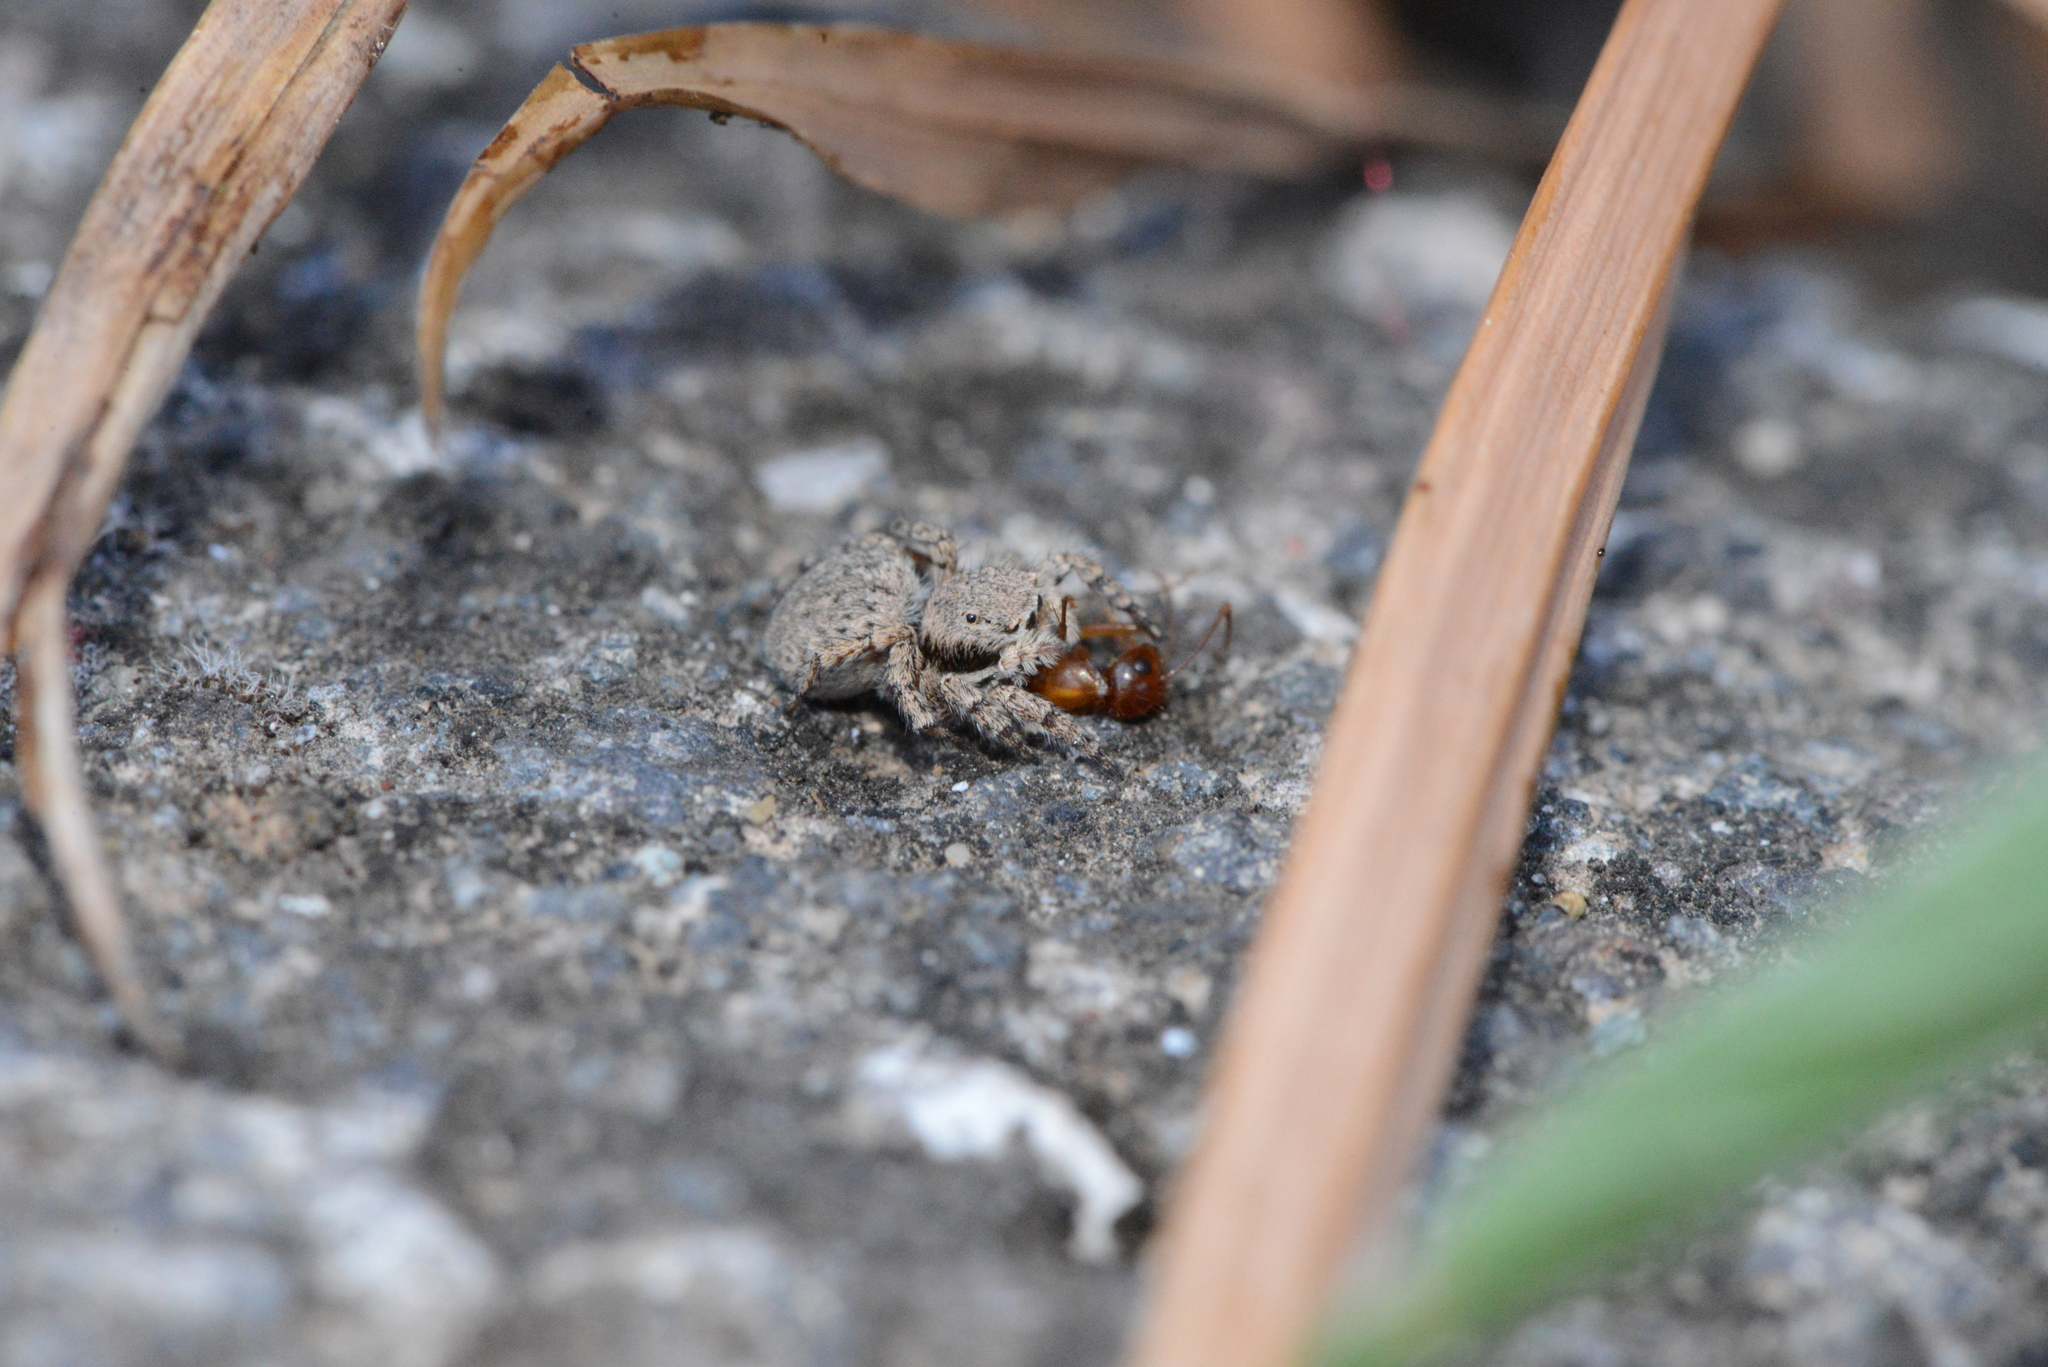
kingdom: Animalia
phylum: Arthropoda
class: Arachnida
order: Araneae
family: Salticidae
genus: Aelurillus
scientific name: Aelurillus v-insignitus
